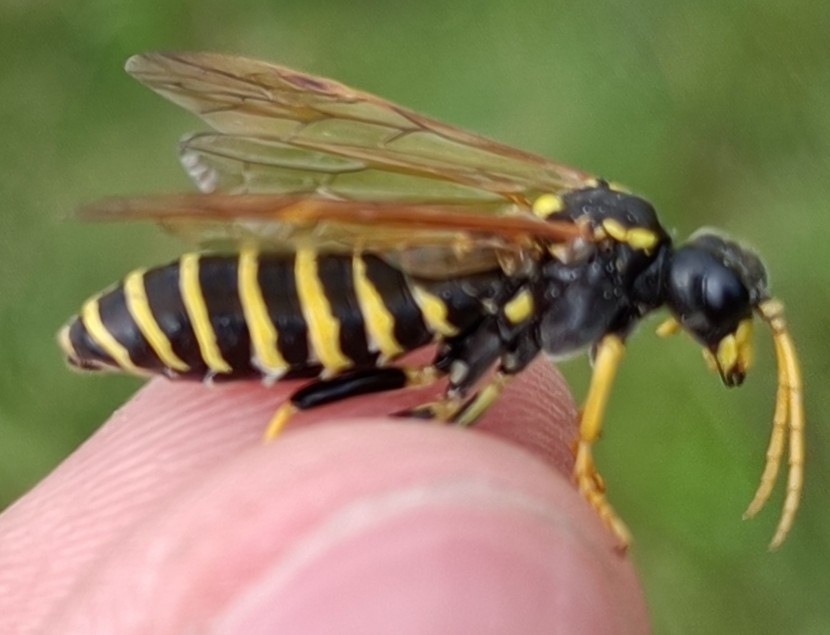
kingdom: Animalia
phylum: Arthropoda
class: Insecta
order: Hymenoptera
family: Tenthredinidae
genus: Tenthredo
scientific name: Tenthredo vespiformis
